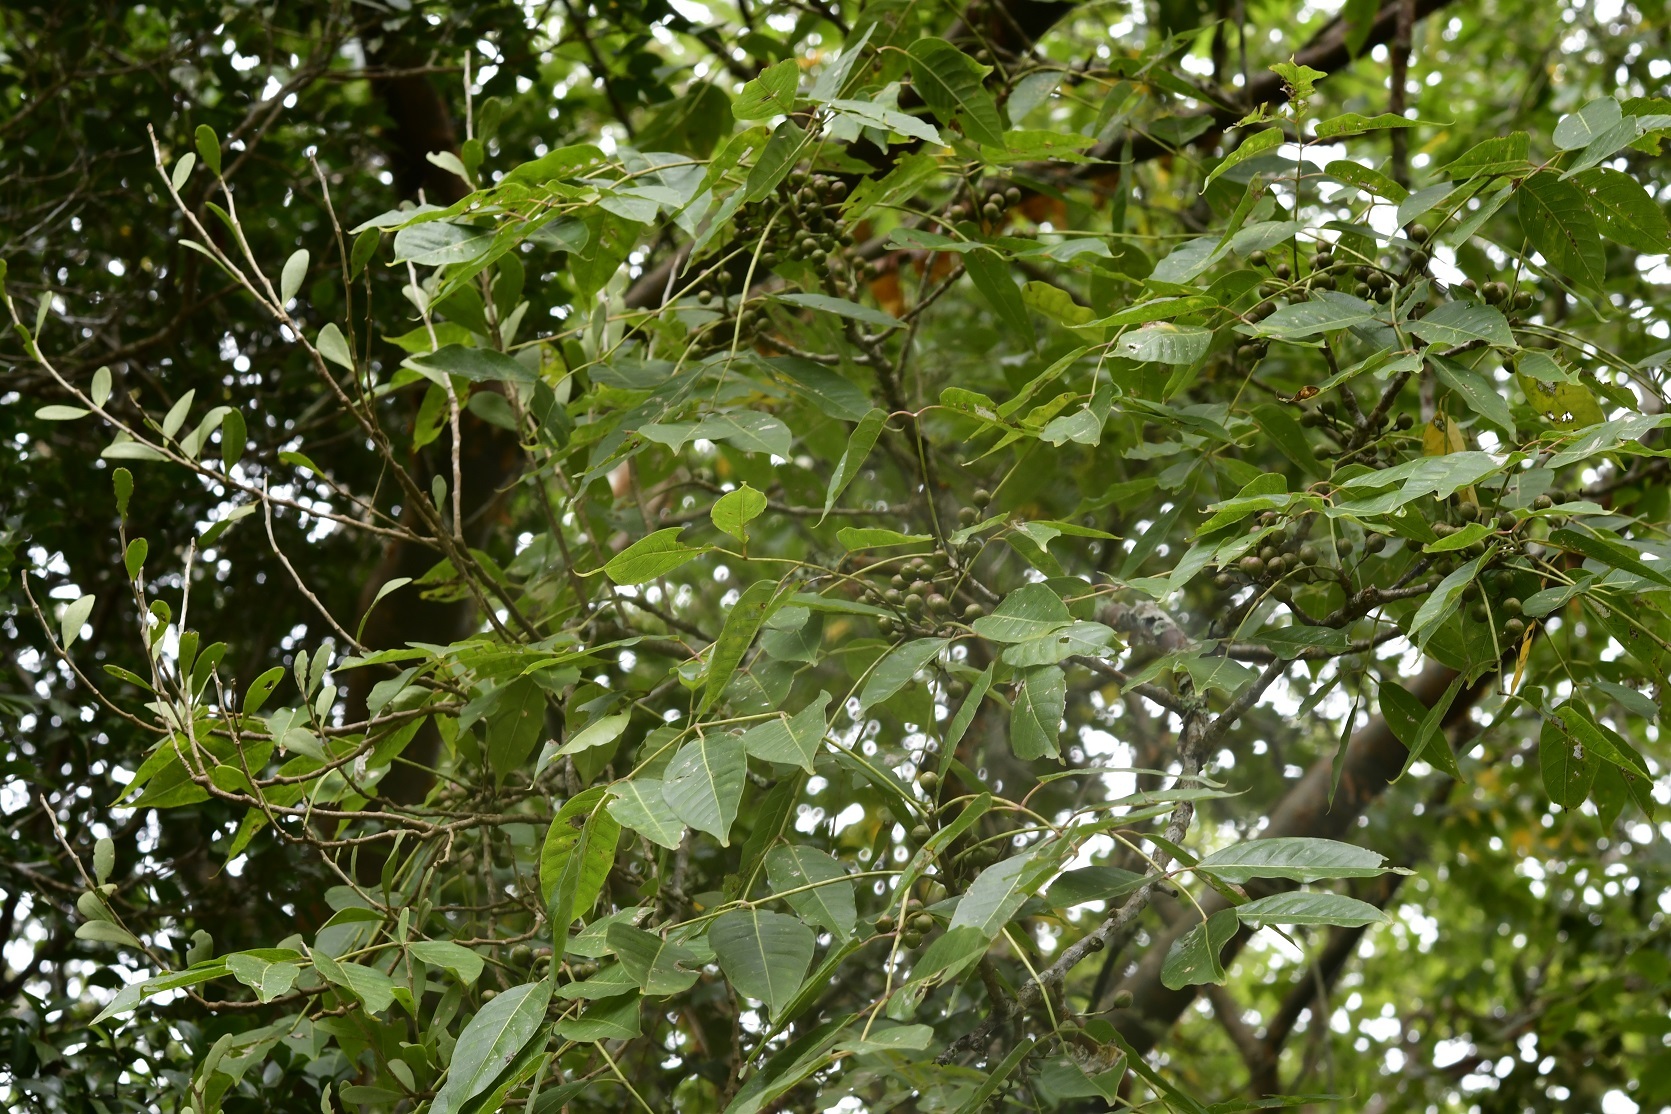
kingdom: Plantae
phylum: Tracheophyta
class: Magnoliopsida
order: Sapindales
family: Burseraceae
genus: Bursera
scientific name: Bursera simaruba
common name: Turpentine tree
